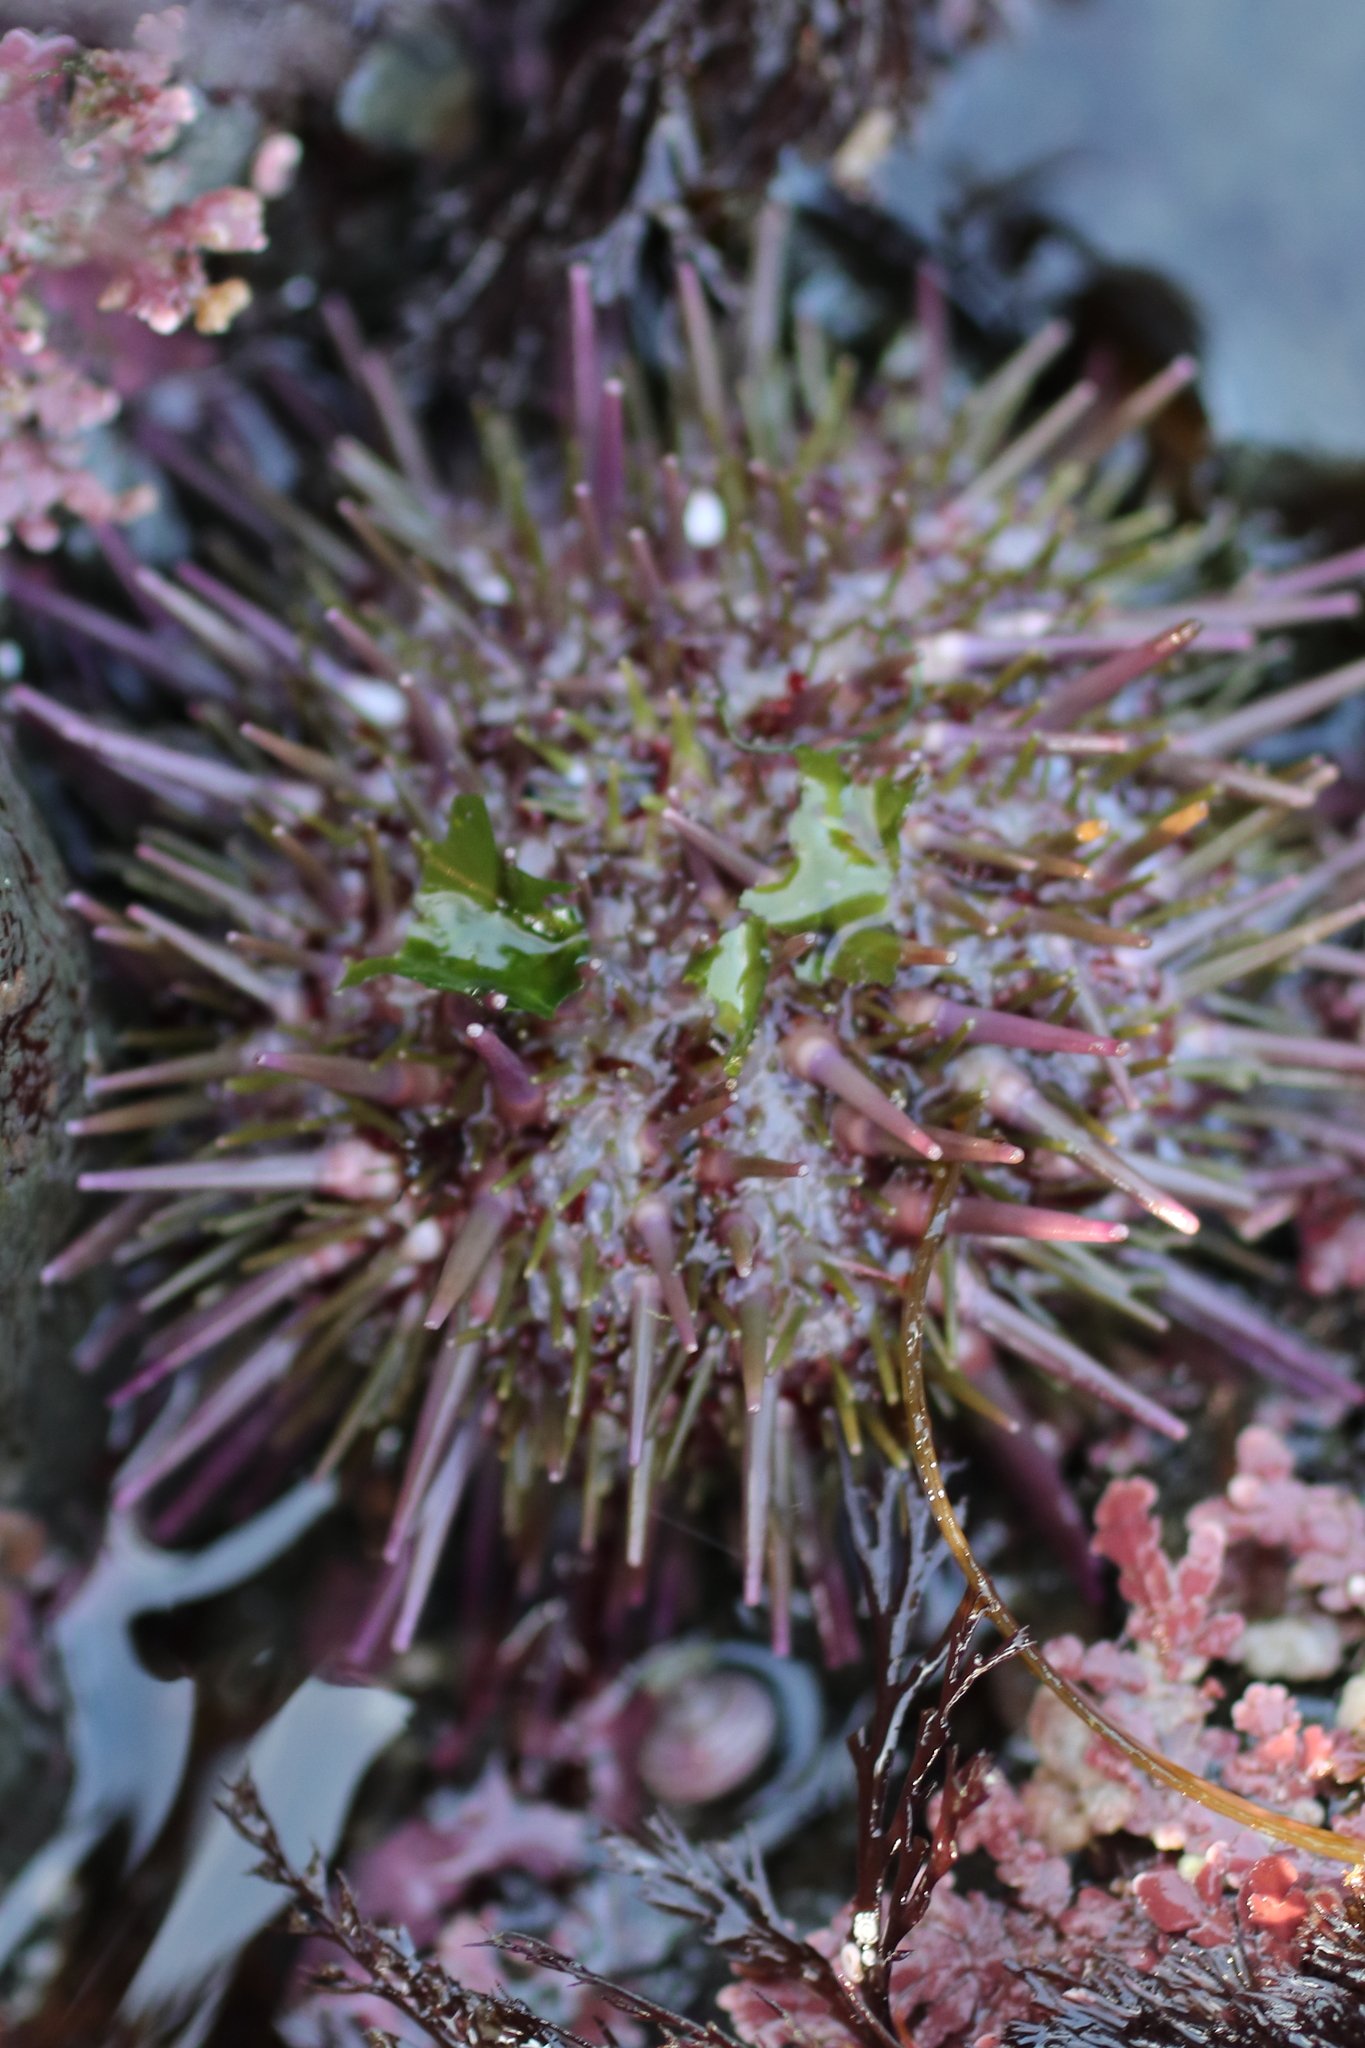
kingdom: Animalia
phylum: Echinodermata
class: Echinoidea
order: Camarodonta
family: Strongylocentrotidae
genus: Strongylocentrotus
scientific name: Strongylocentrotus droebachiensis
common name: Northern sea urchin
